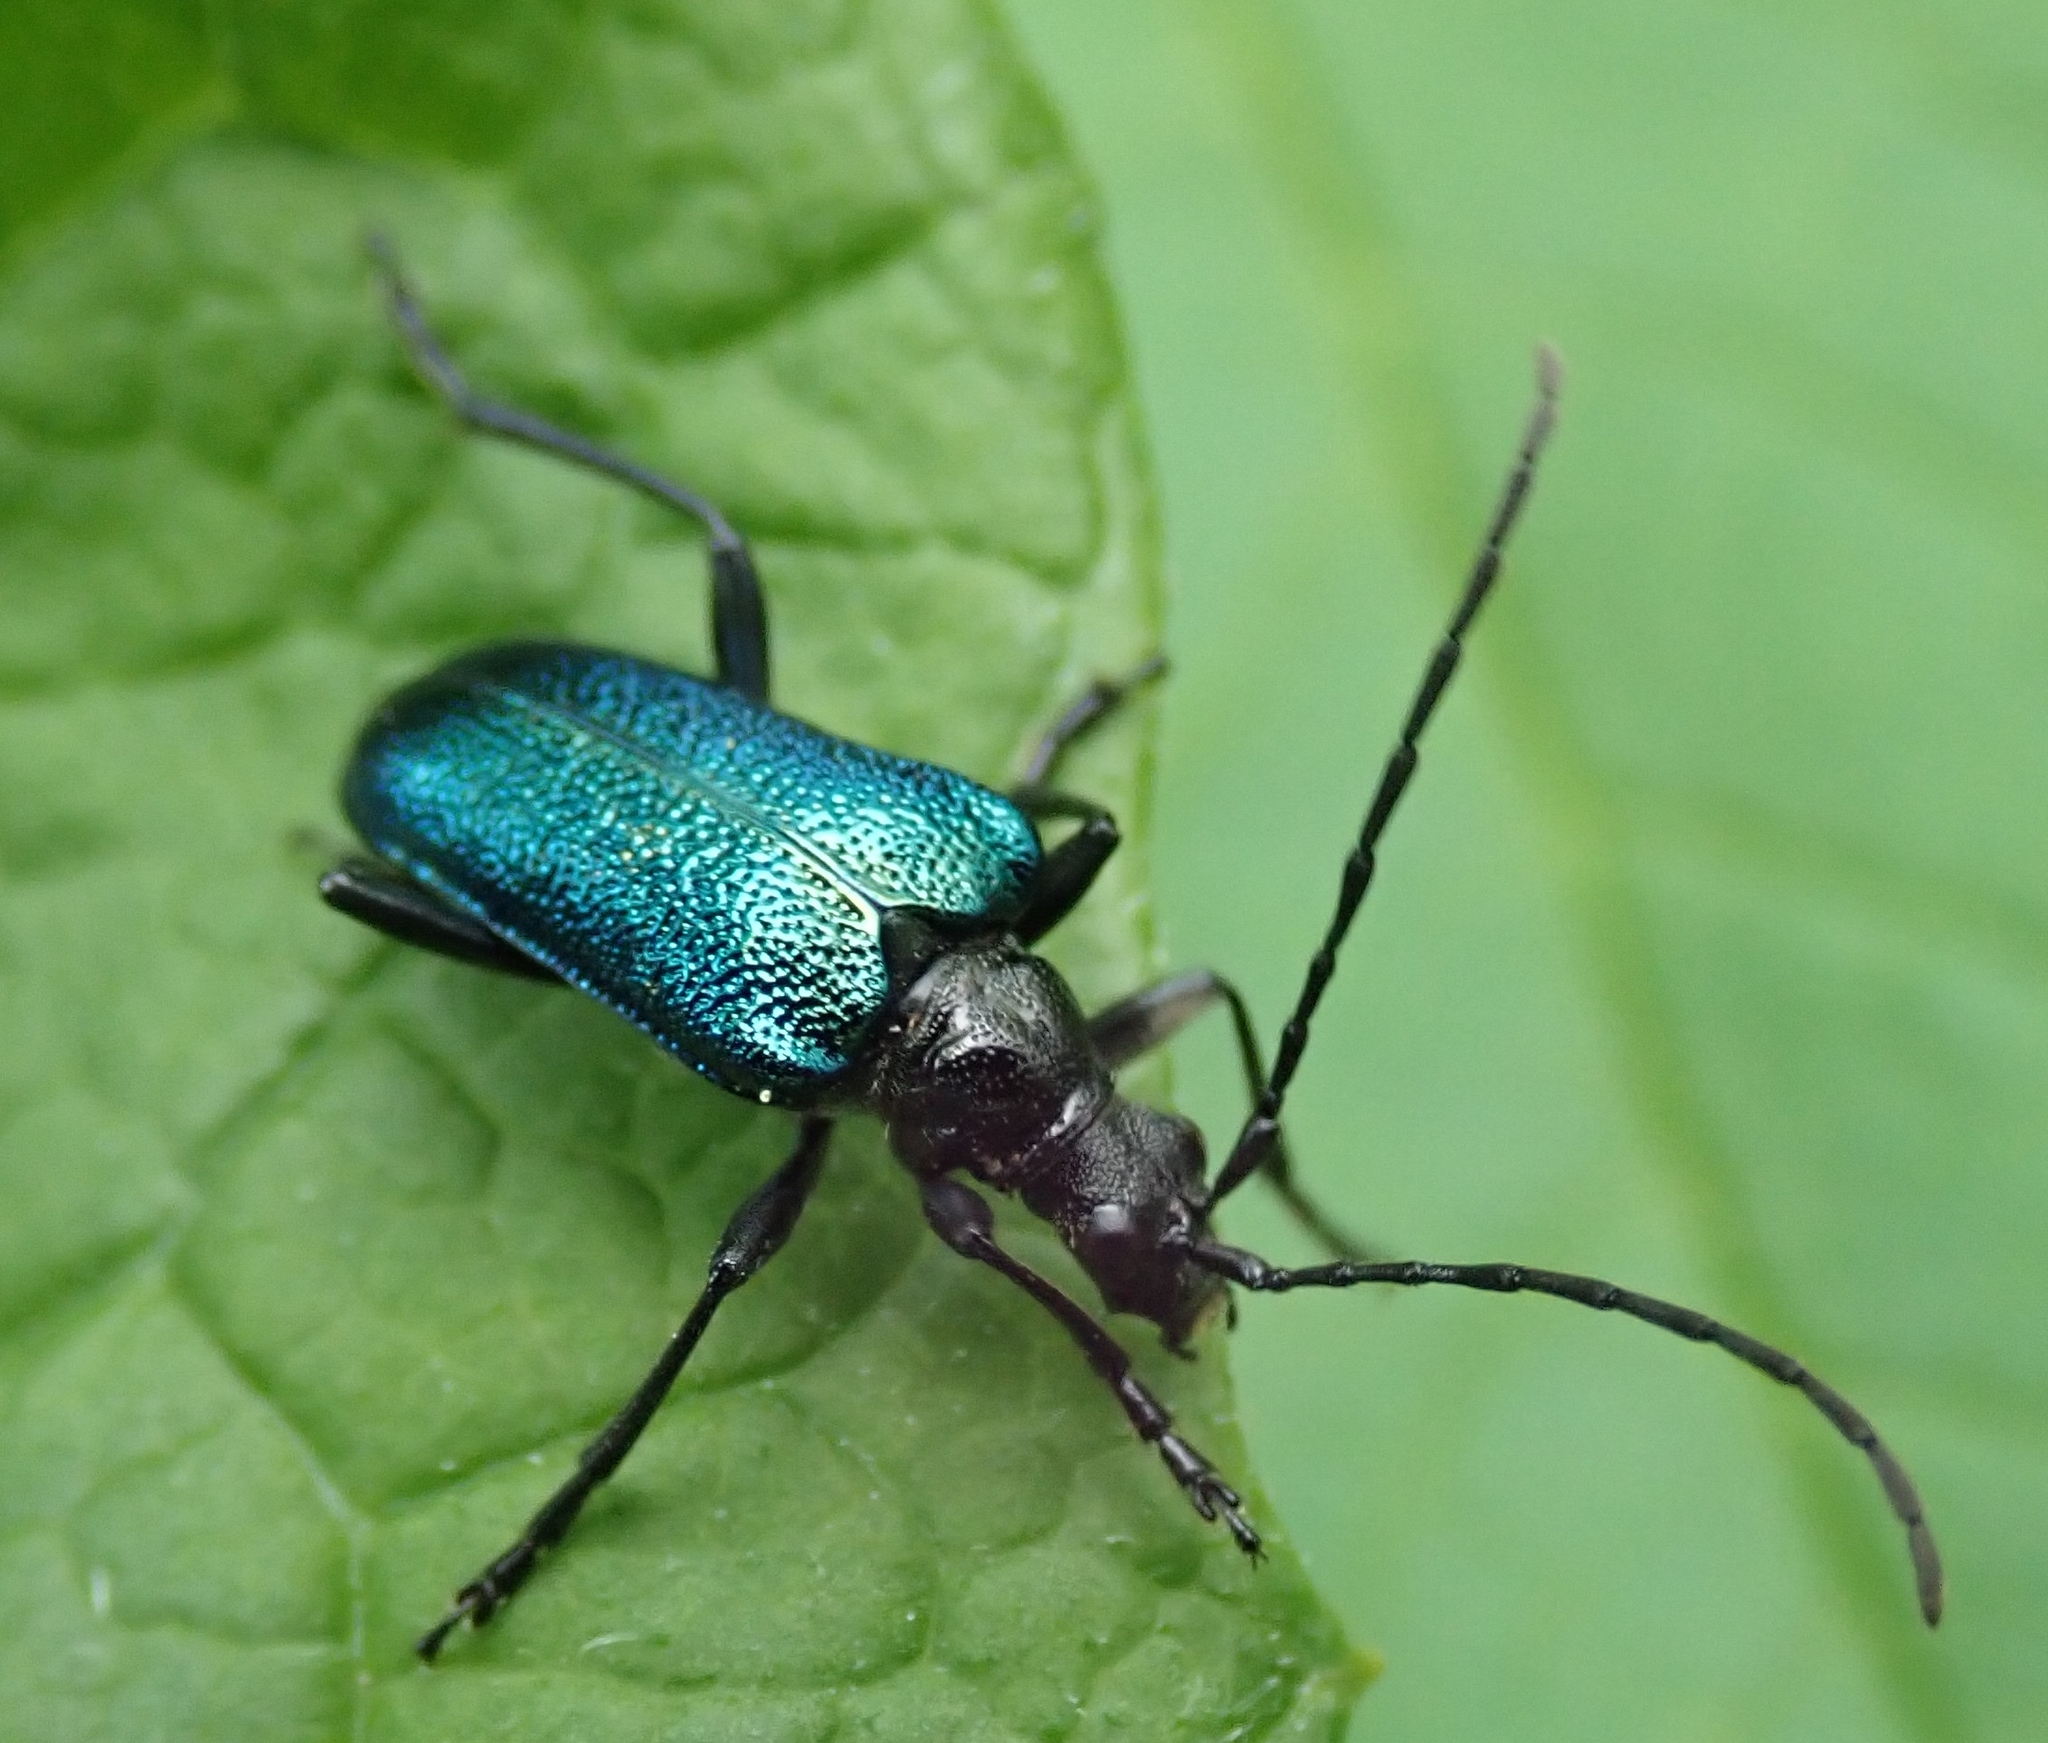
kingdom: Animalia
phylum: Arthropoda
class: Insecta
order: Coleoptera
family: Cerambycidae
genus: Gaurotes
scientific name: Gaurotes virginea
